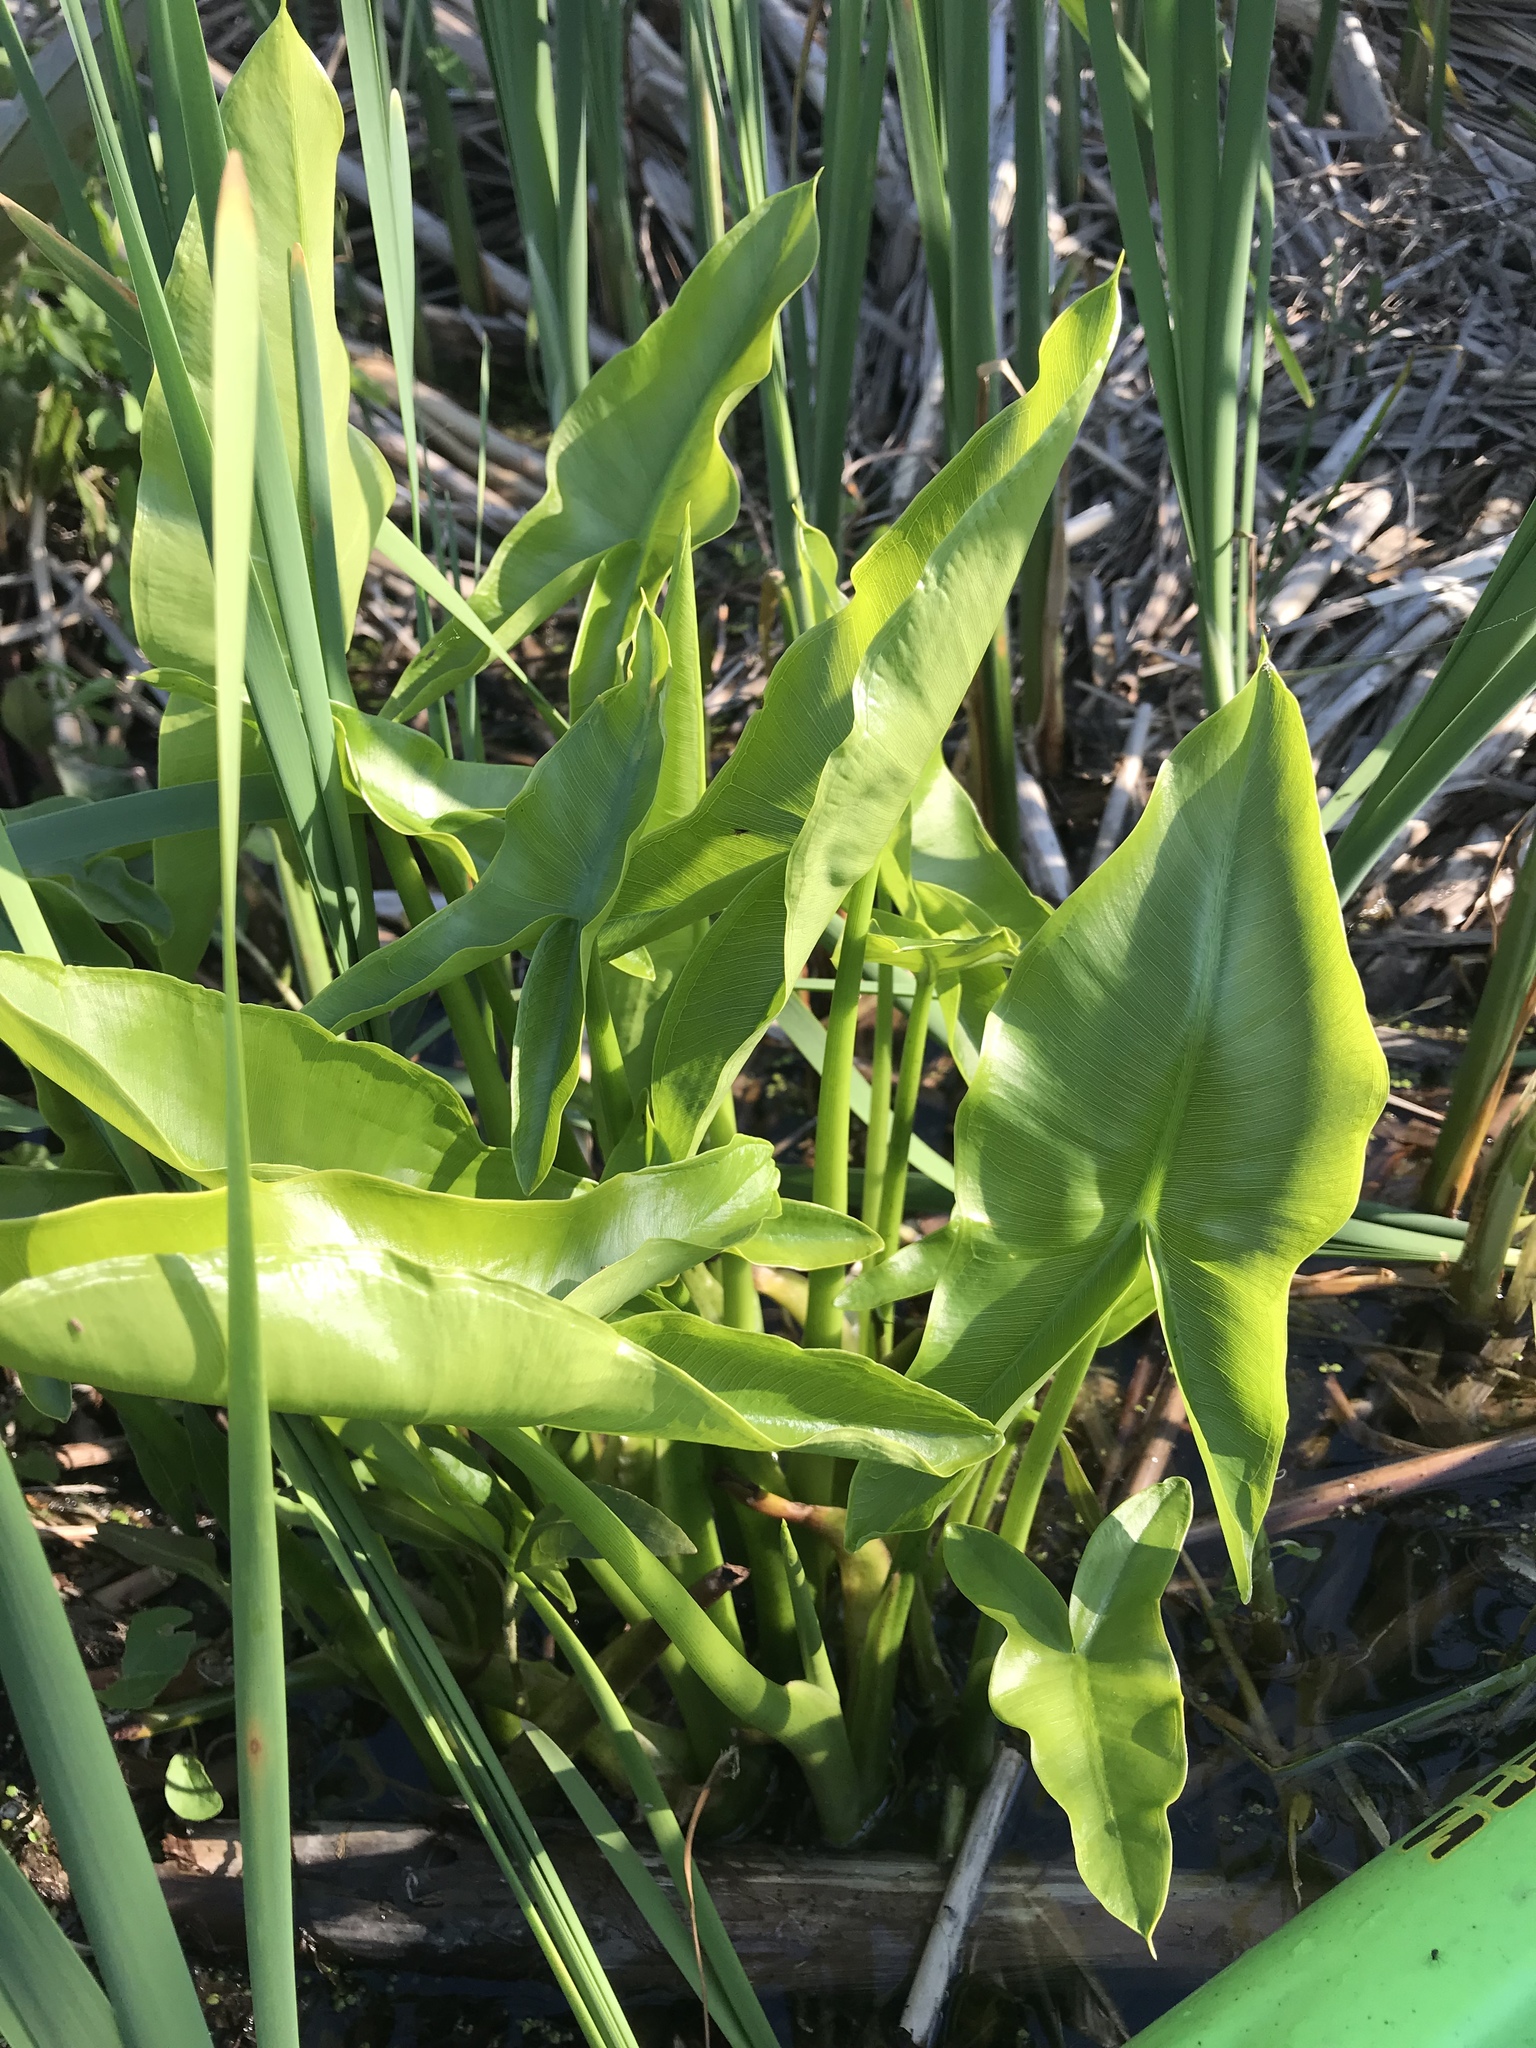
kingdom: Plantae
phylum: Tracheophyta
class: Liliopsida
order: Alismatales
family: Araceae
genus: Peltandra
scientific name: Peltandra virginica
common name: Arrow arum
